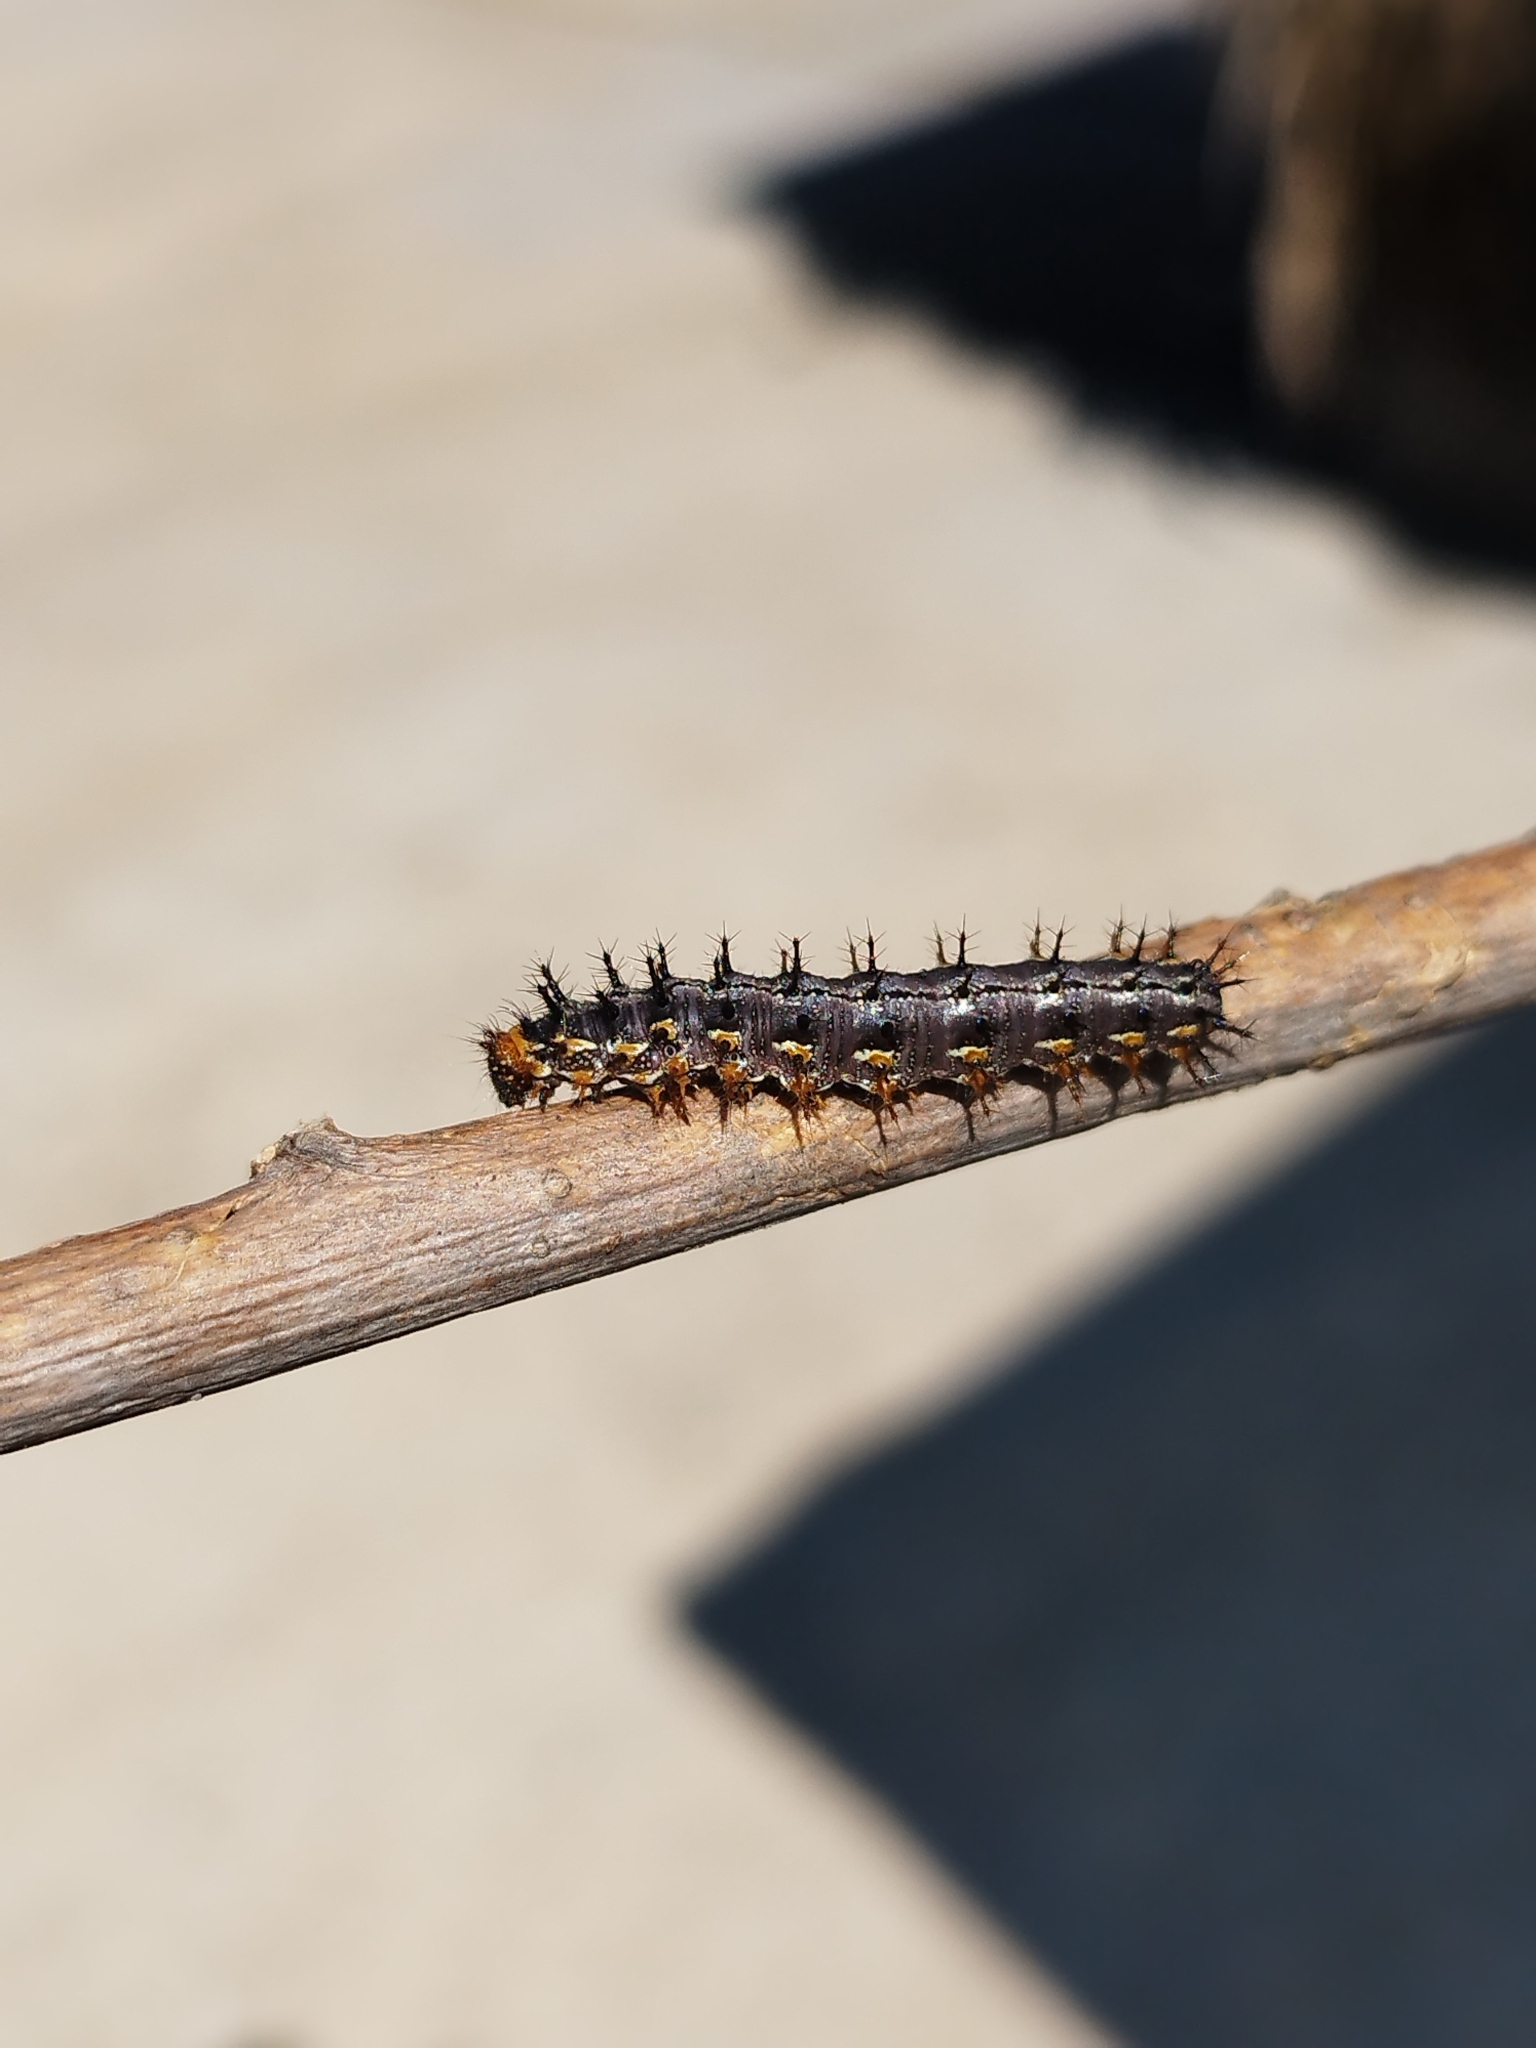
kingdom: Animalia
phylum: Arthropoda
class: Insecta
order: Lepidoptera
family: Nymphalidae
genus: Junonia
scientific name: Junonia lavinia
